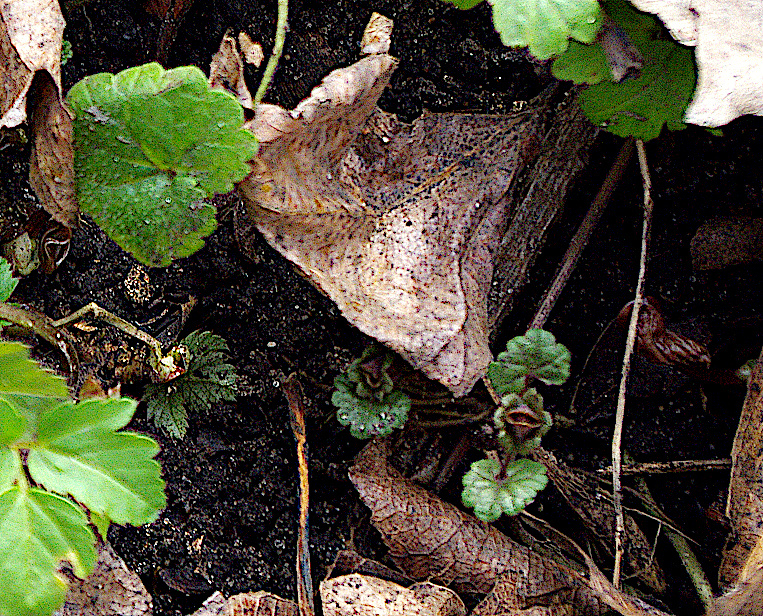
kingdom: Plantae
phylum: Tracheophyta
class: Magnoliopsida
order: Lamiales
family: Lamiaceae
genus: Glechoma
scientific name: Glechoma hederacea
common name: Ground ivy
